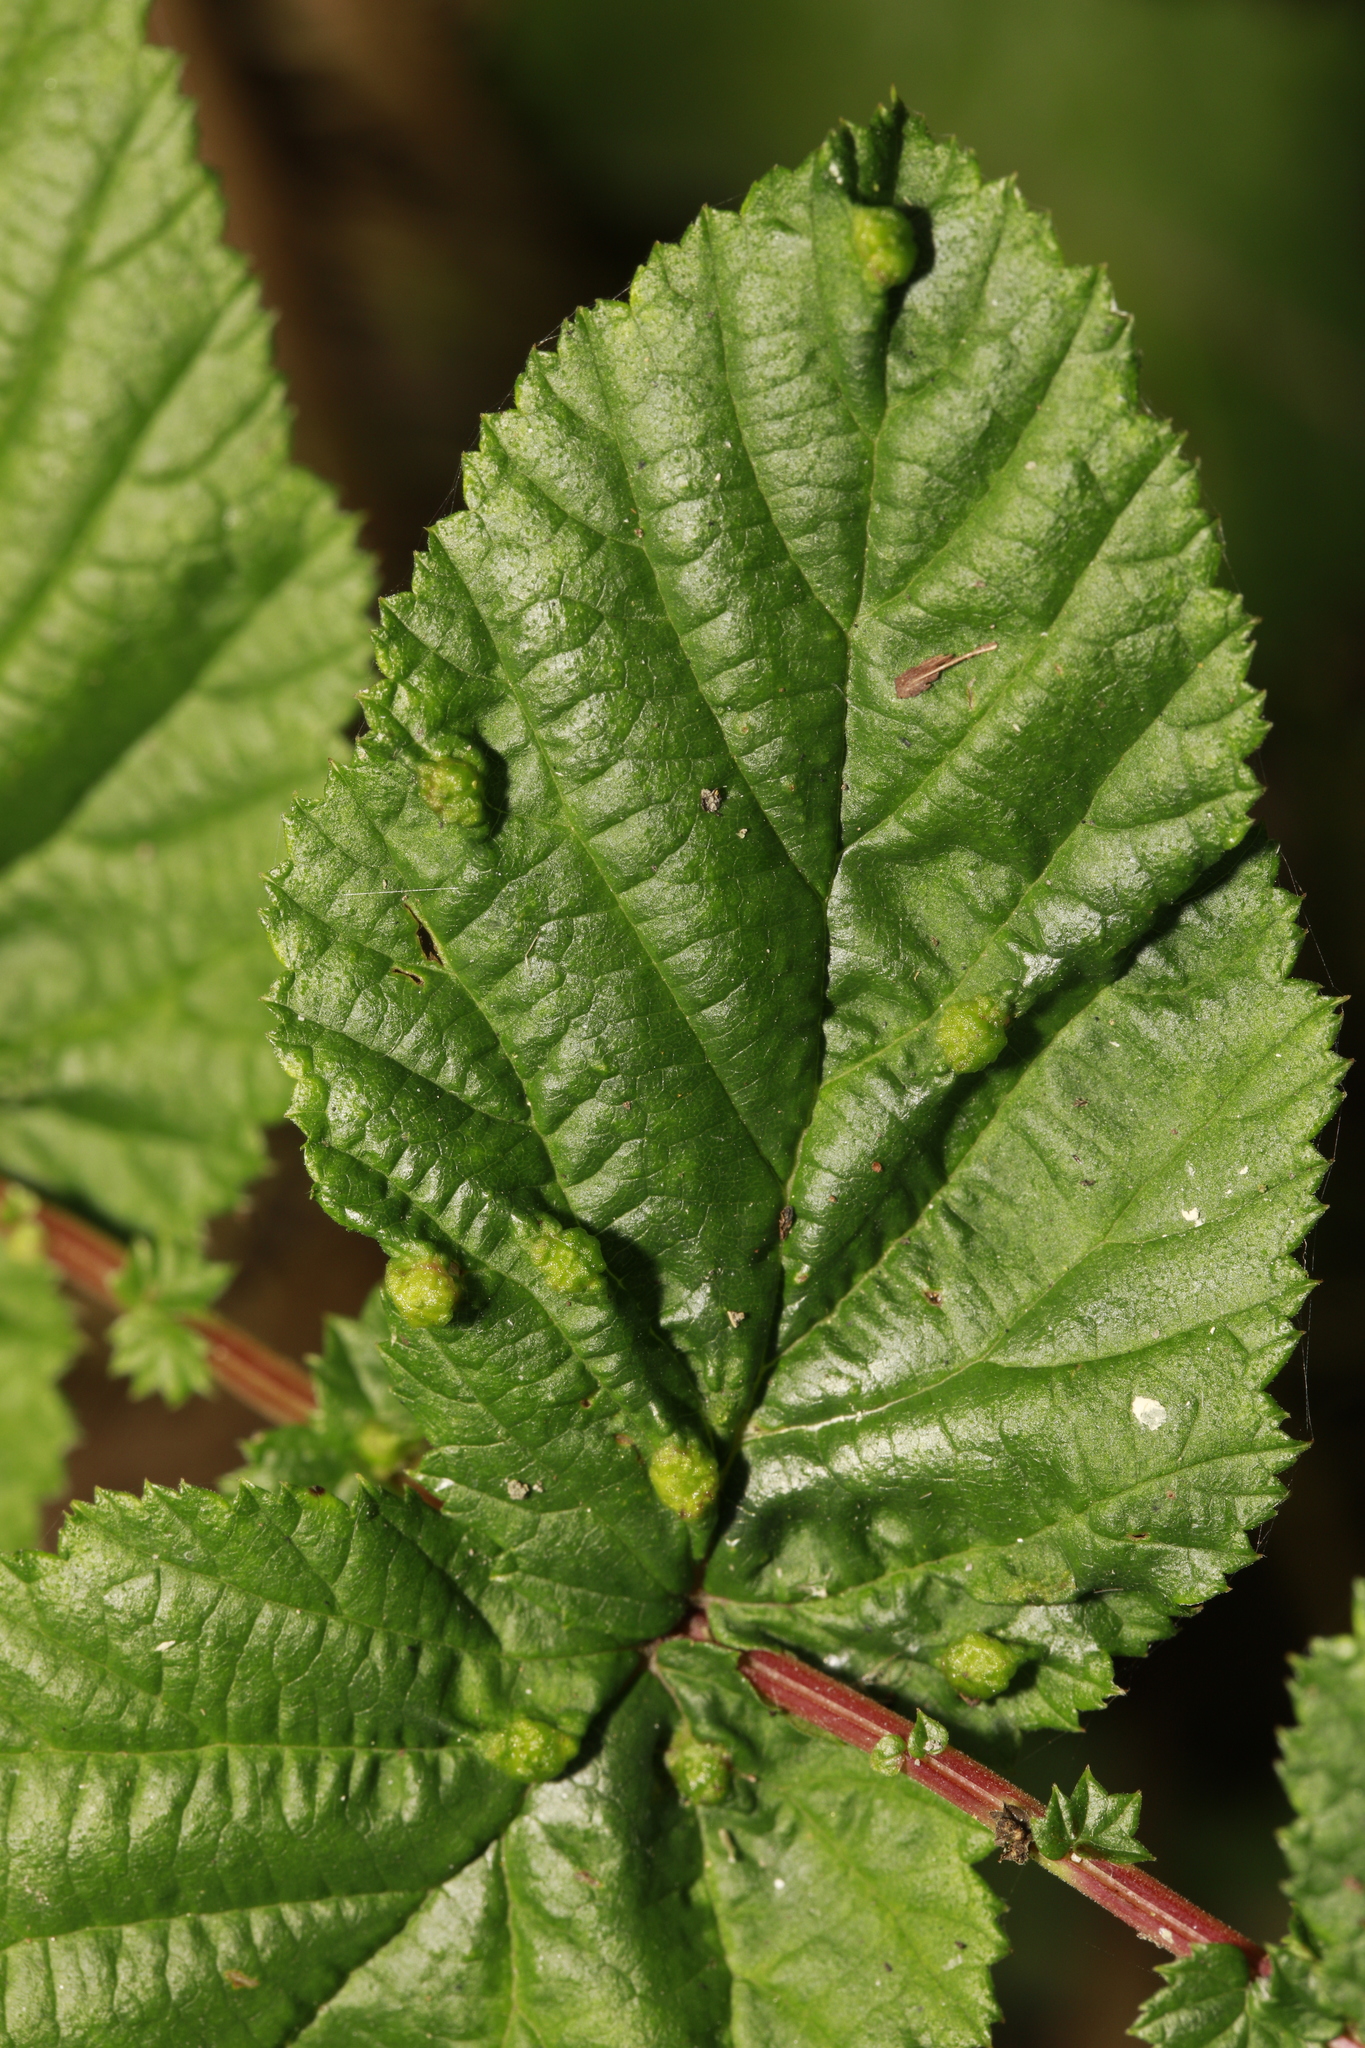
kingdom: Animalia
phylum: Arthropoda
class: Insecta
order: Diptera
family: Cecidomyiidae
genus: Dasineura
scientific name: Dasineura ulmaria
